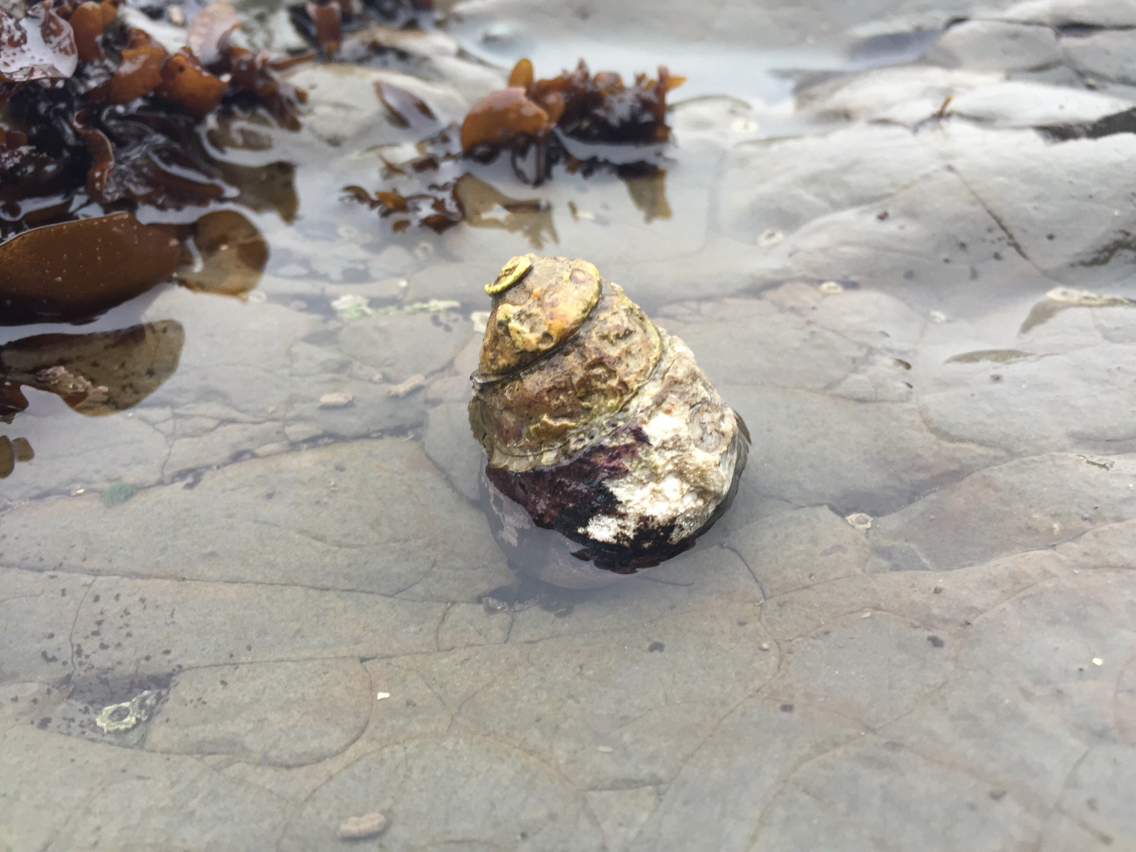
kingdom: Animalia
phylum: Mollusca
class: Gastropoda
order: Trochida
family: Tegulidae
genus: Tegula
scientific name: Tegula funebralis
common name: Black tegula
